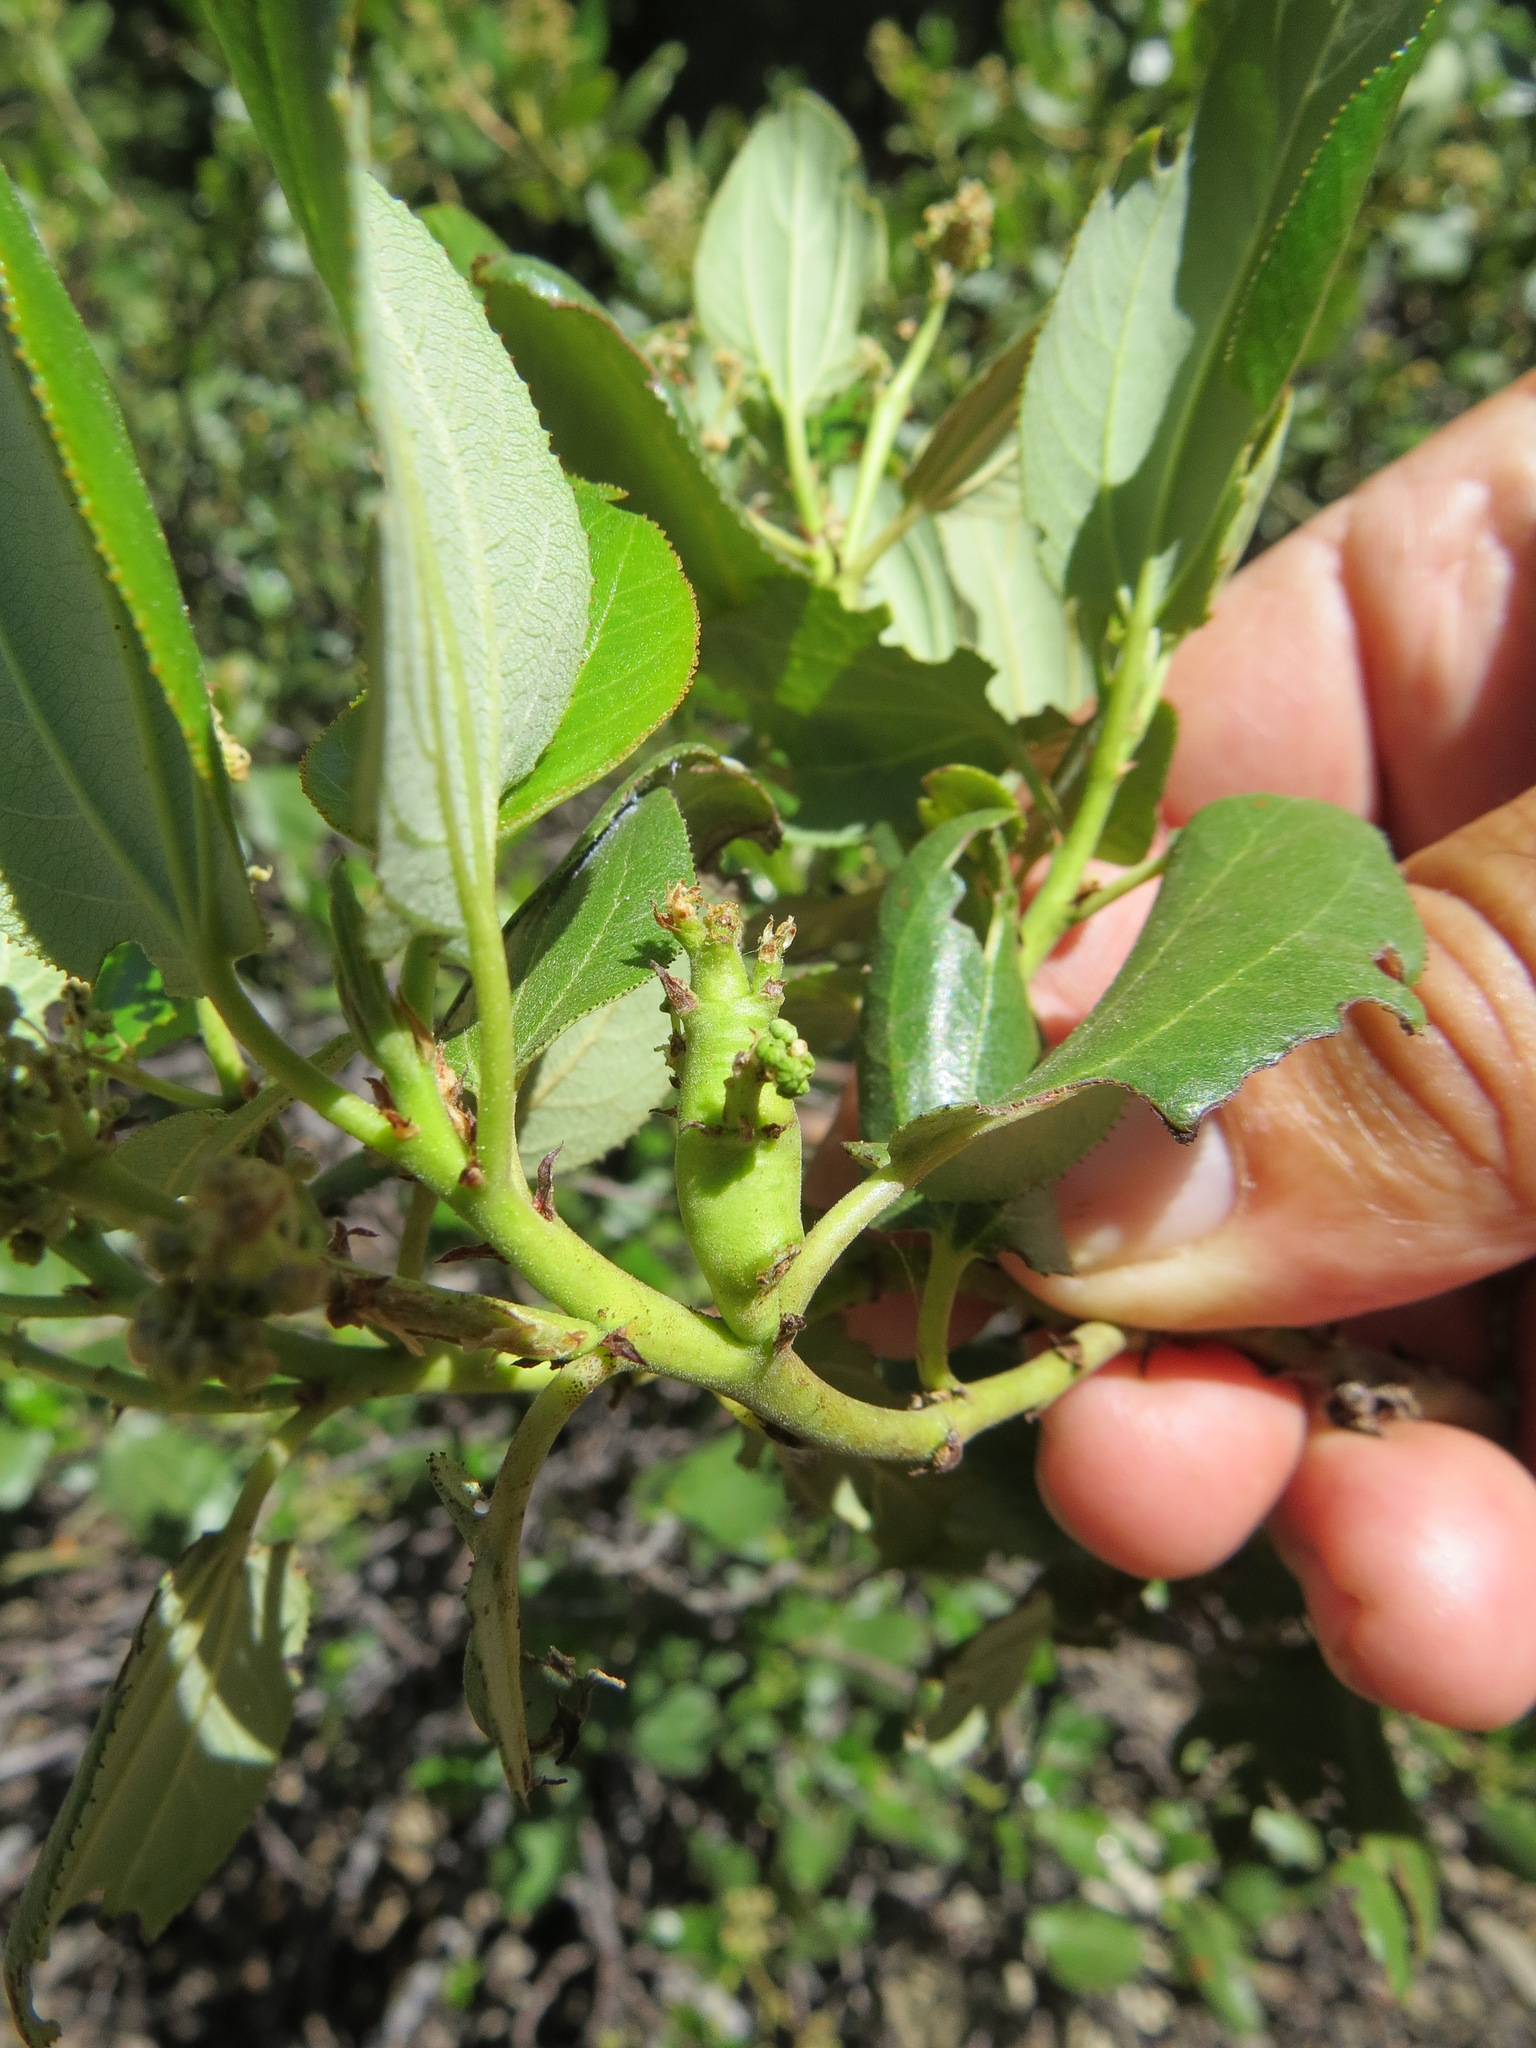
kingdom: Animalia
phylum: Arthropoda
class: Insecta
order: Lepidoptera
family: Cosmopterigidae
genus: Periploca
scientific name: Periploca ceanothiella
